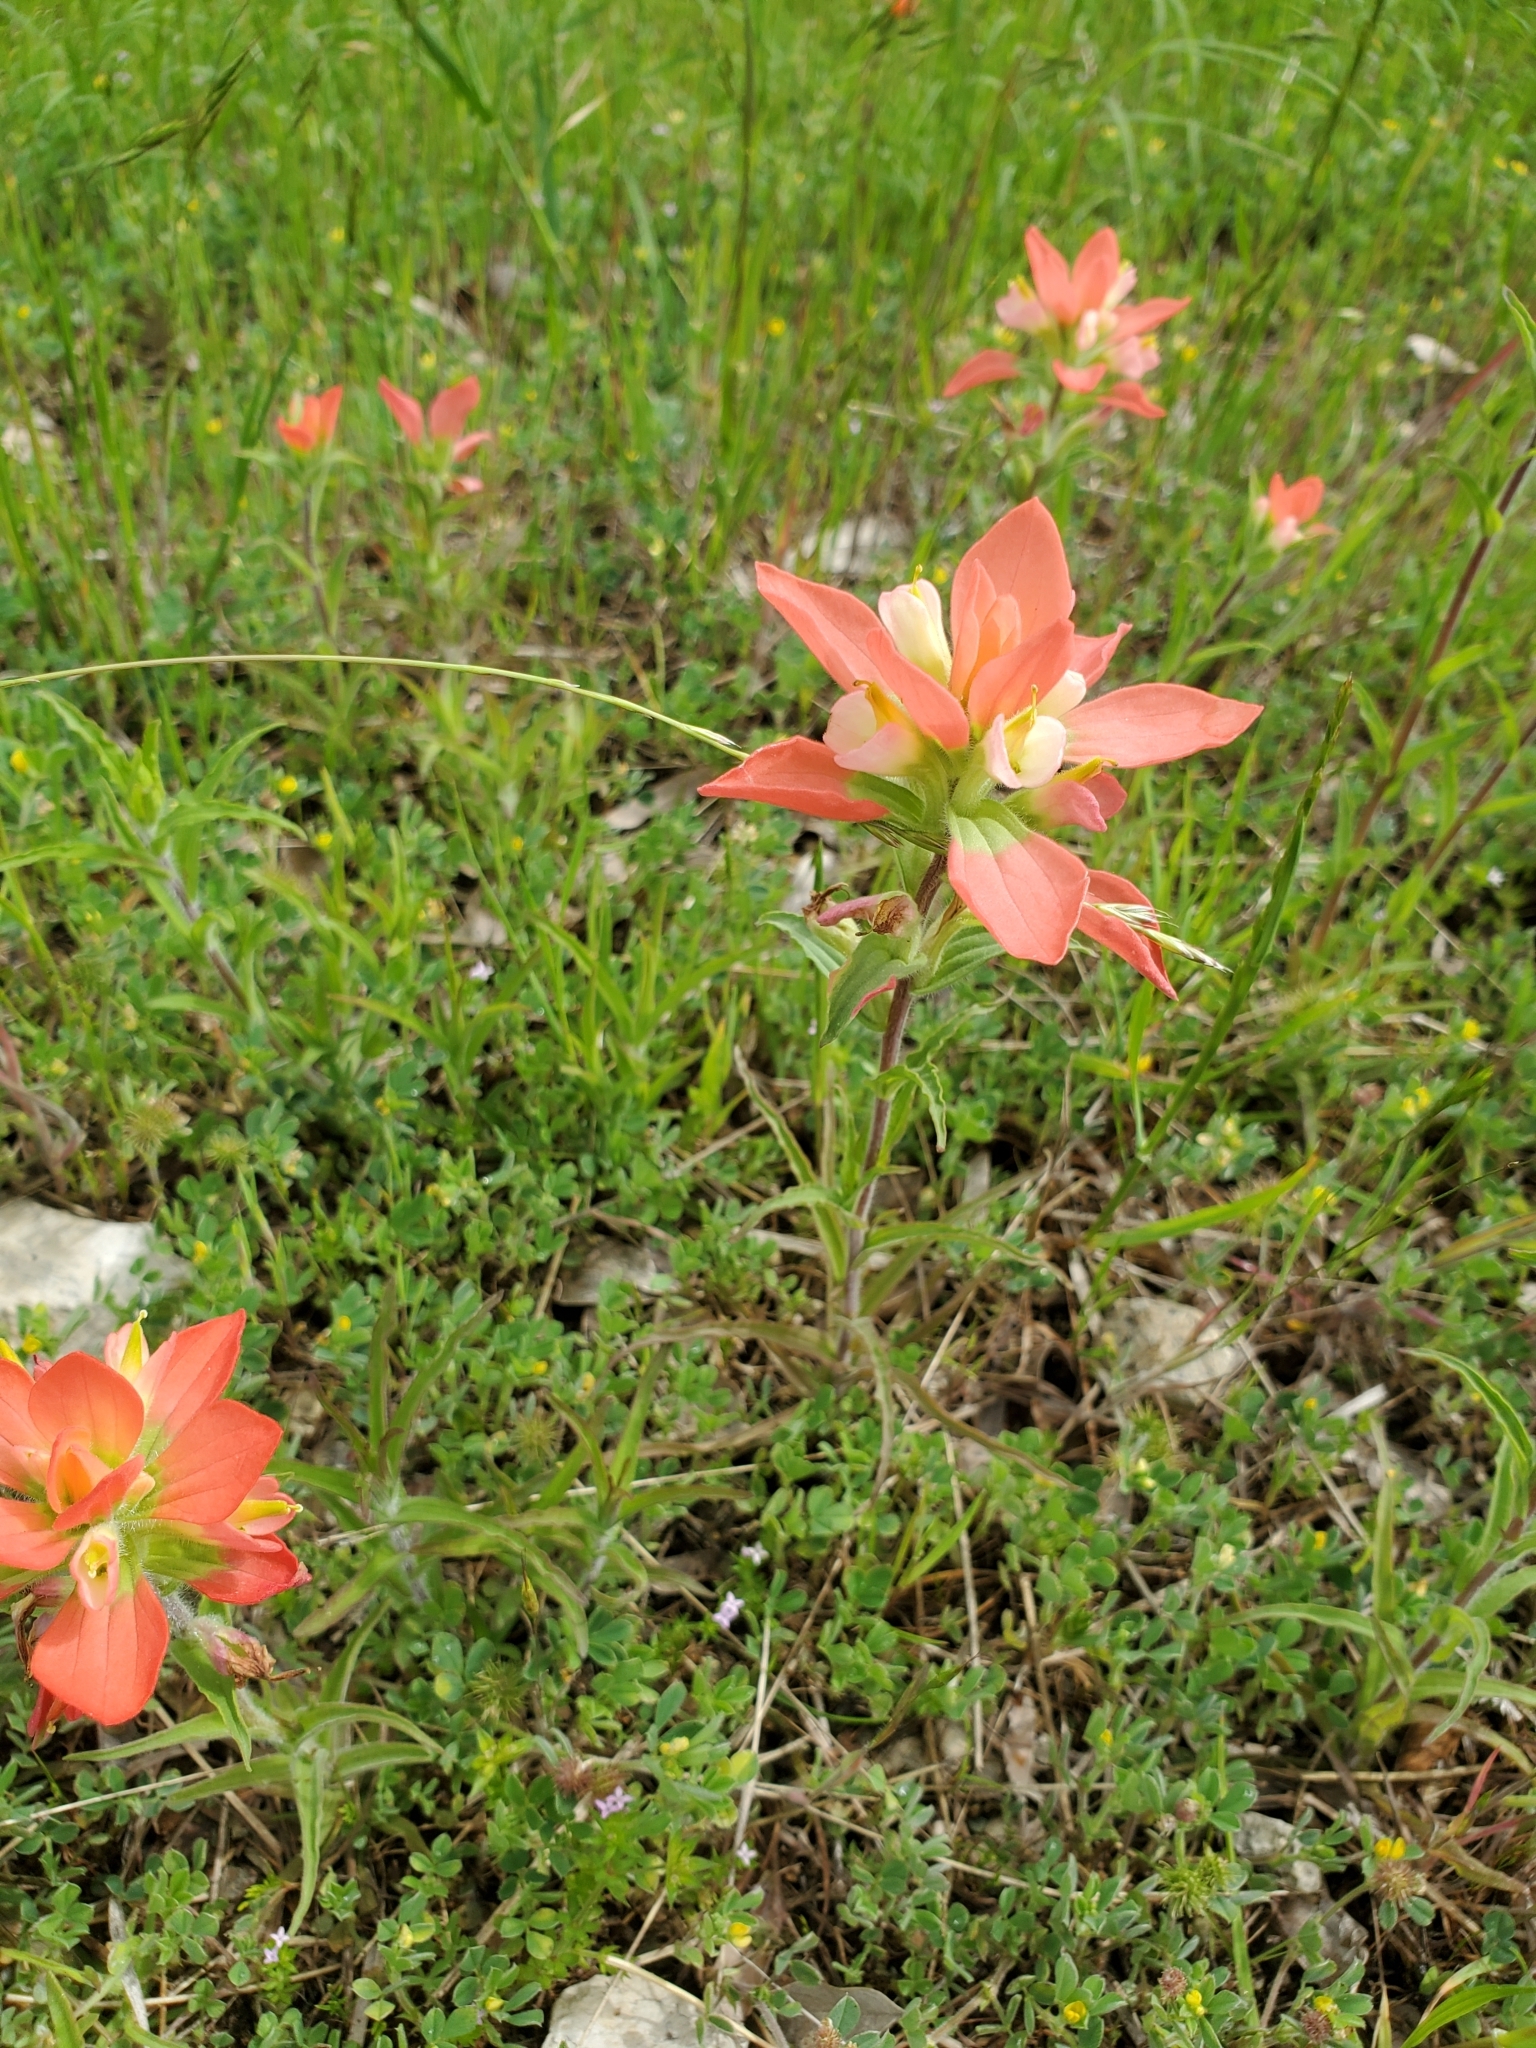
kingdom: Plantae
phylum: Tracheophyta
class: Magnoliopsida
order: Lamiales
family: Orobanchaceae
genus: Castilleja
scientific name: Castilleja indivisa
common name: Texas paintbrush
